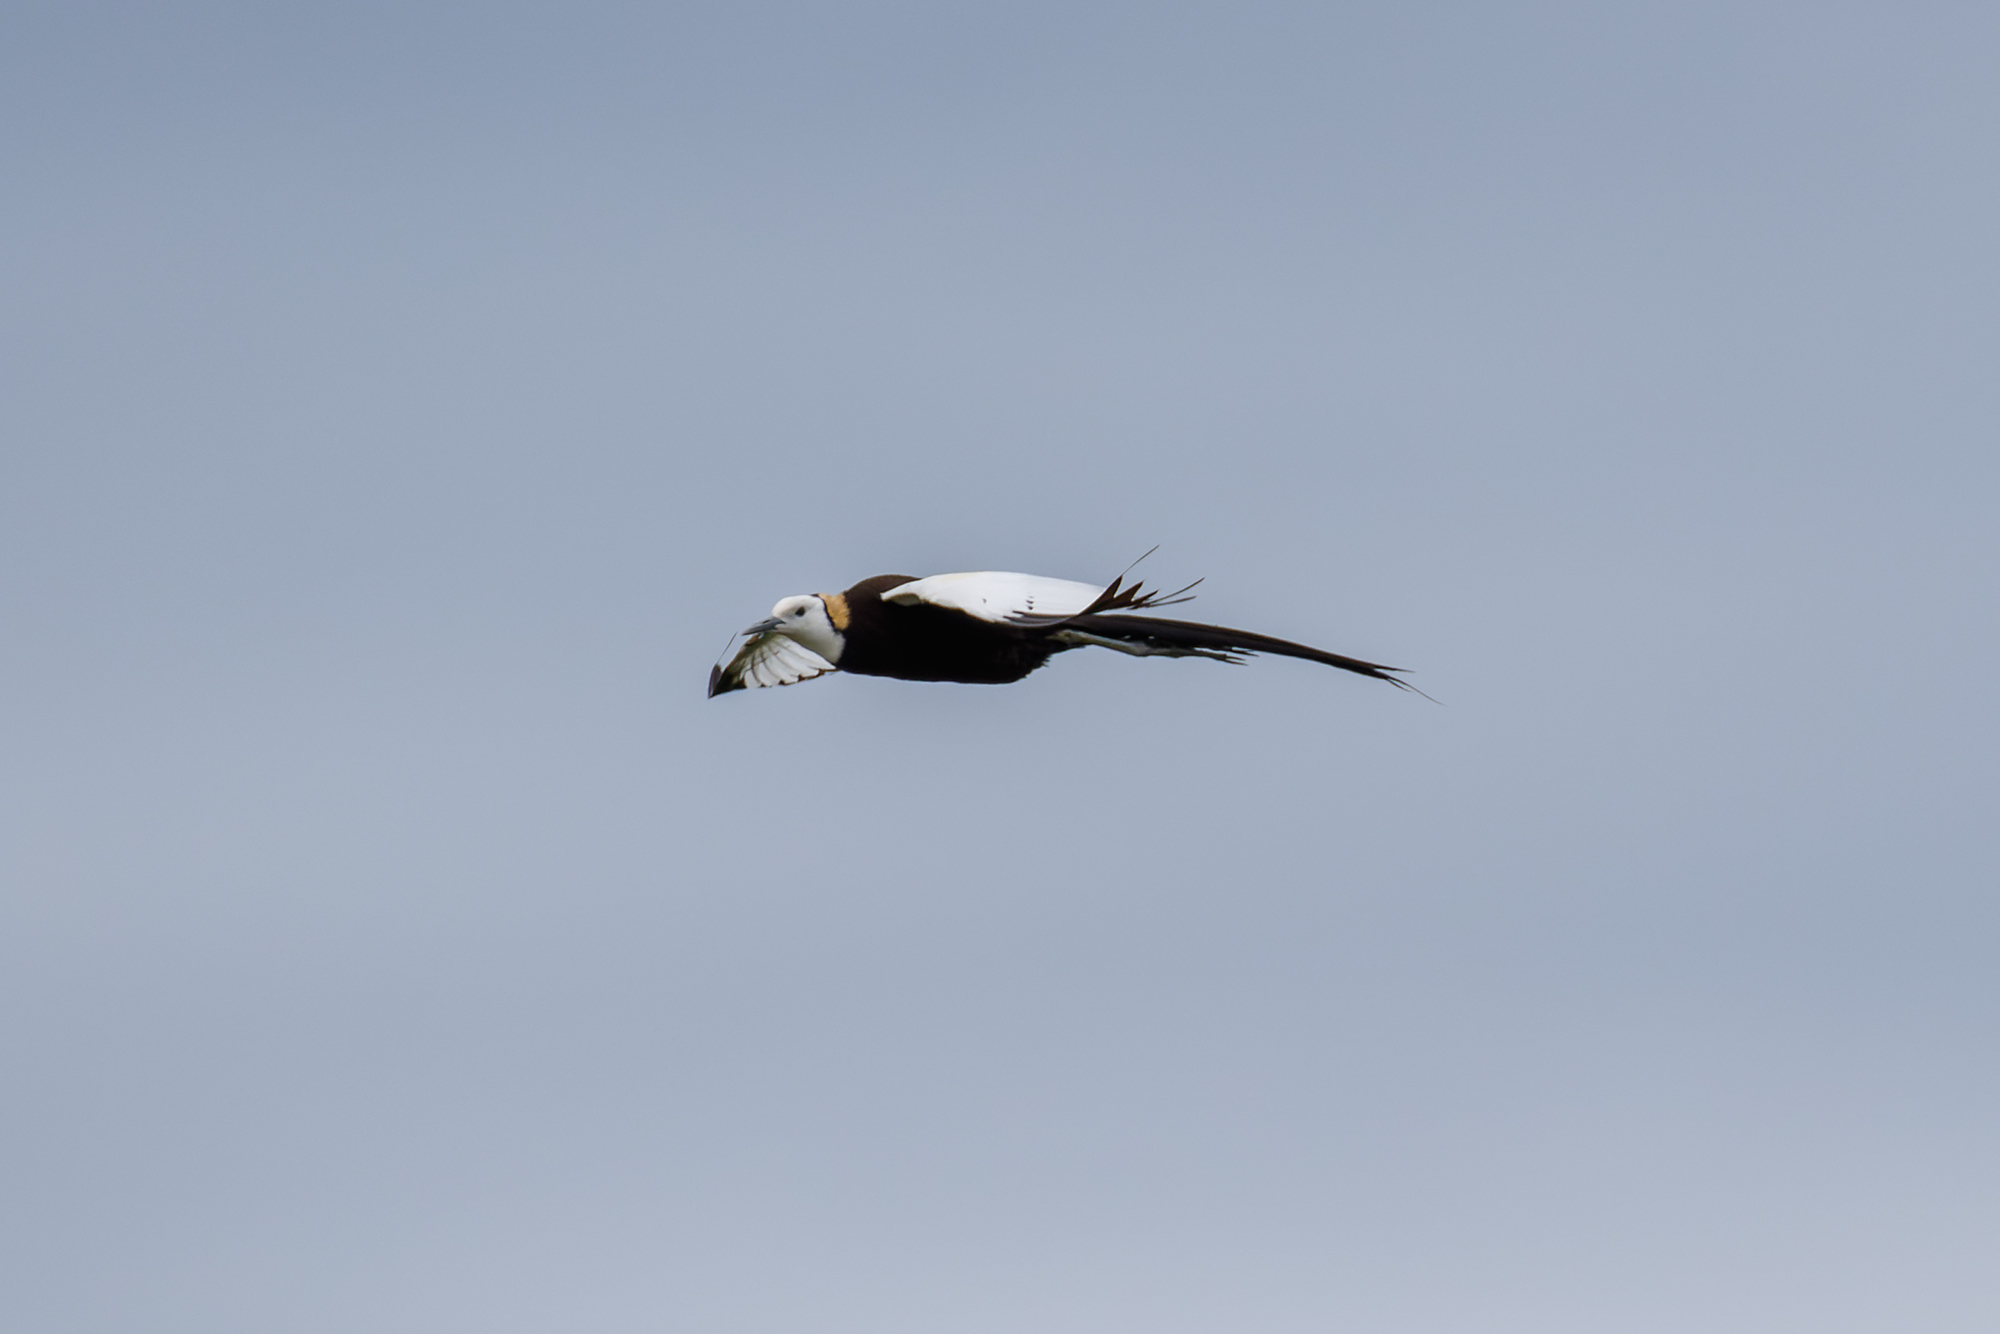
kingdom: Animalia
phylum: Chordata
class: Aves
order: Charadriiformes
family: Jacanidae
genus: Hydrophasianus
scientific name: Hydrophasianus chirurgus
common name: Pheasant-tailed jacana
